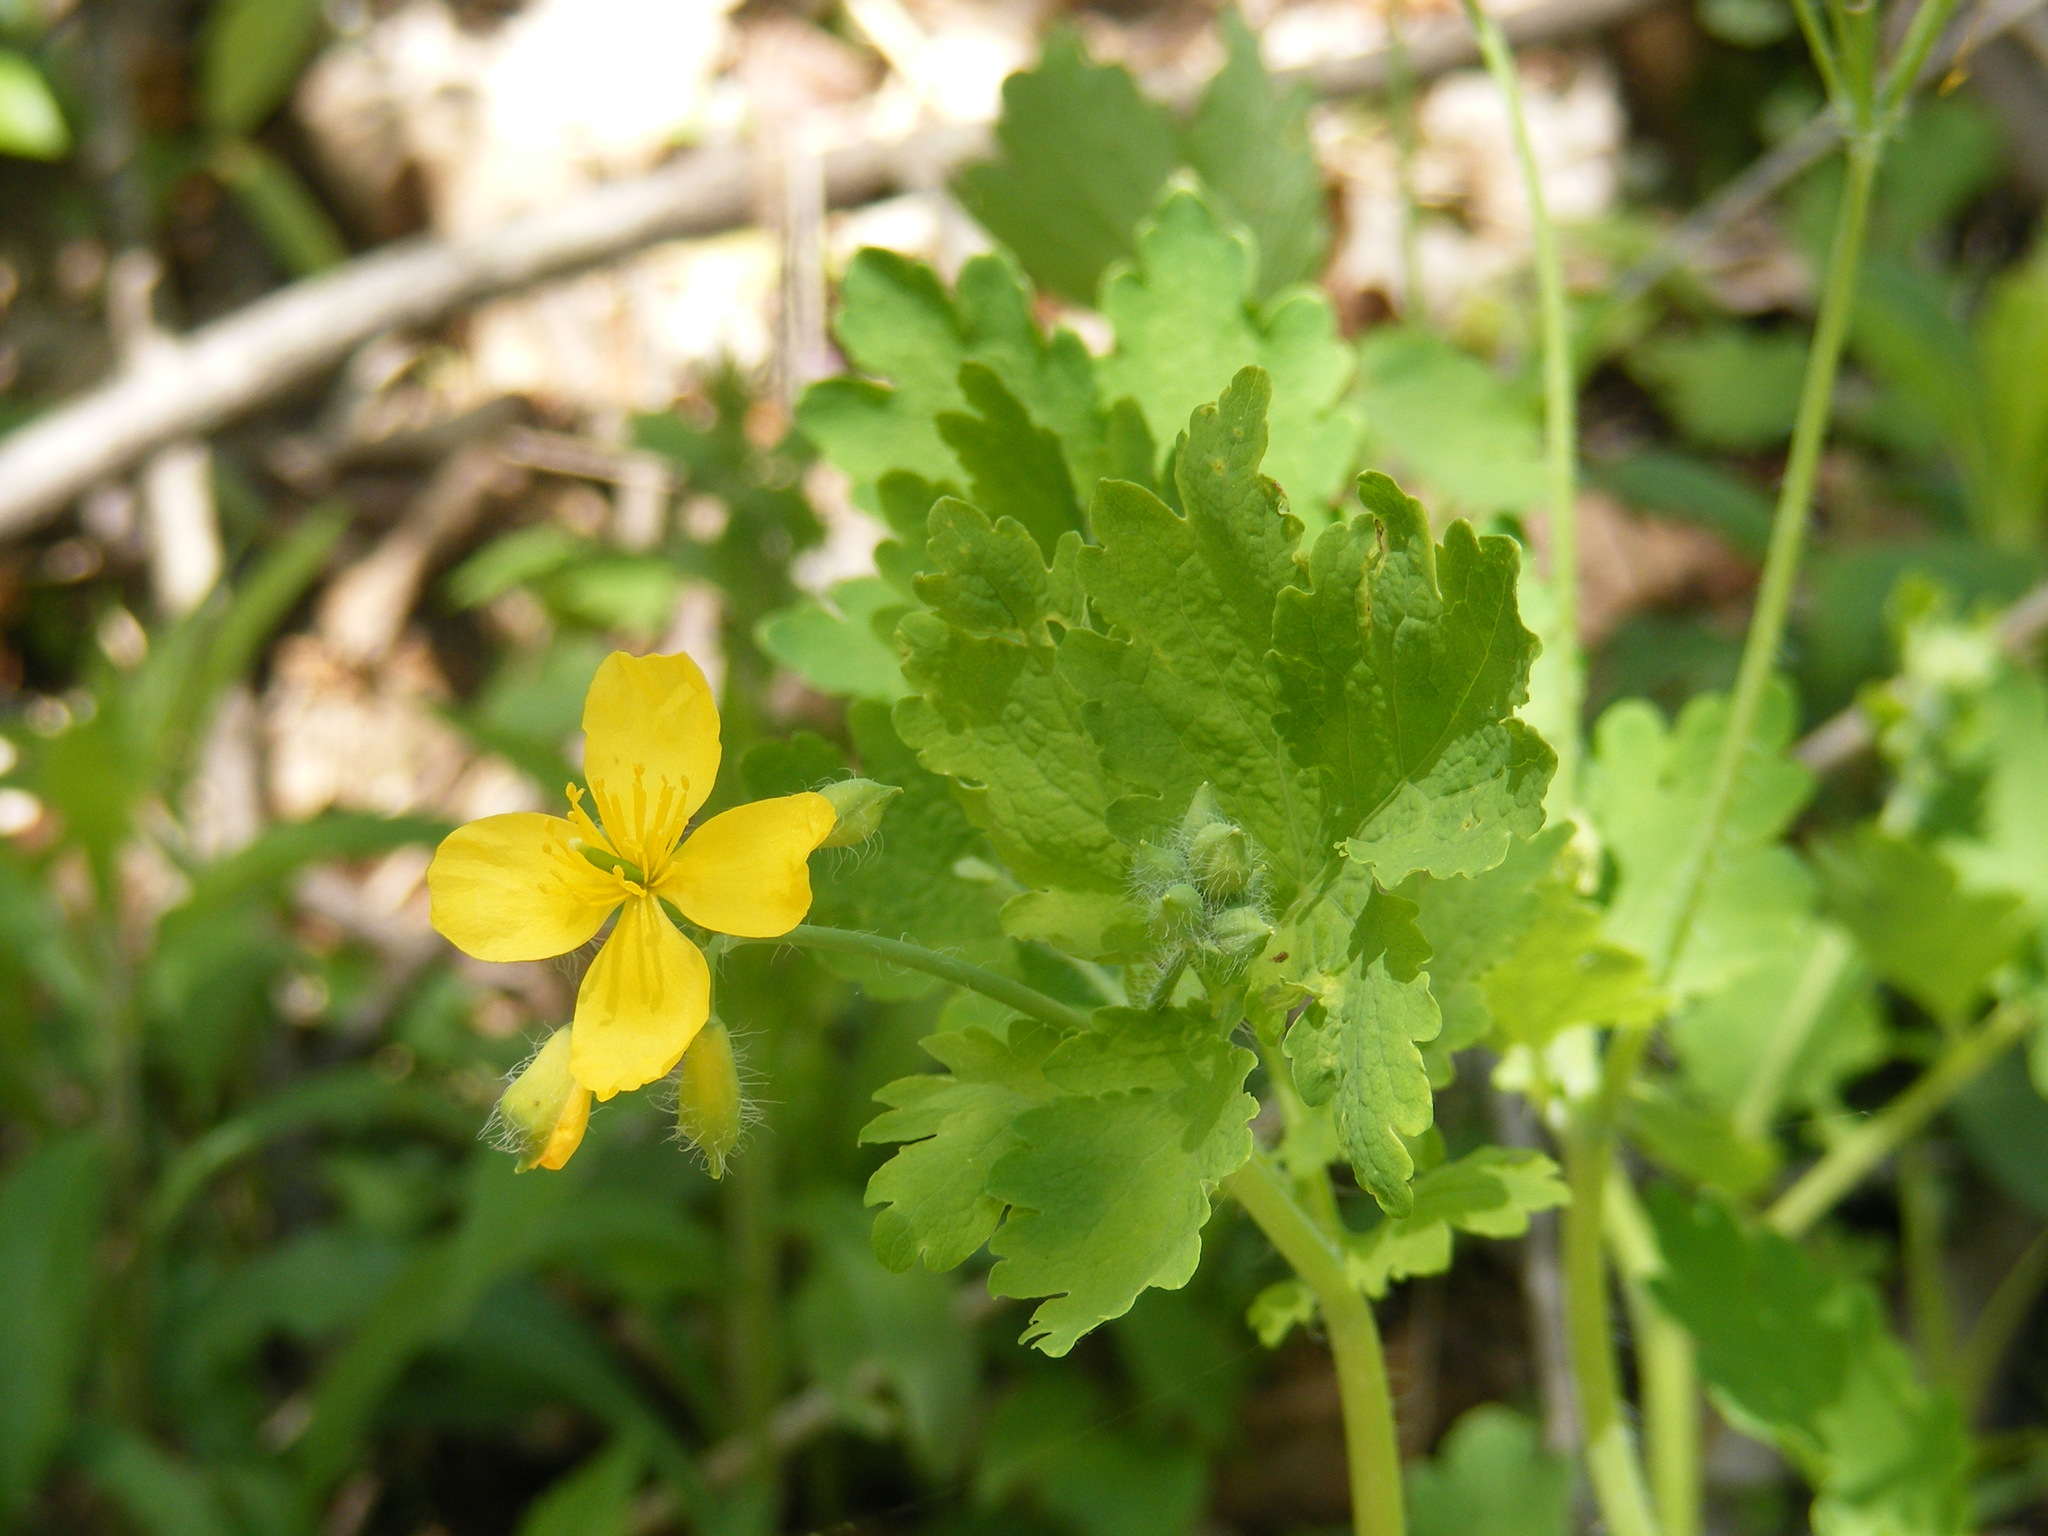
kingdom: Plantae
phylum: Tracheophyta
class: Magnoliopsida
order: Ranunculales
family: Papaveraceae
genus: Chelidonium
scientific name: Chelidonium majus
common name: Greater celandine
